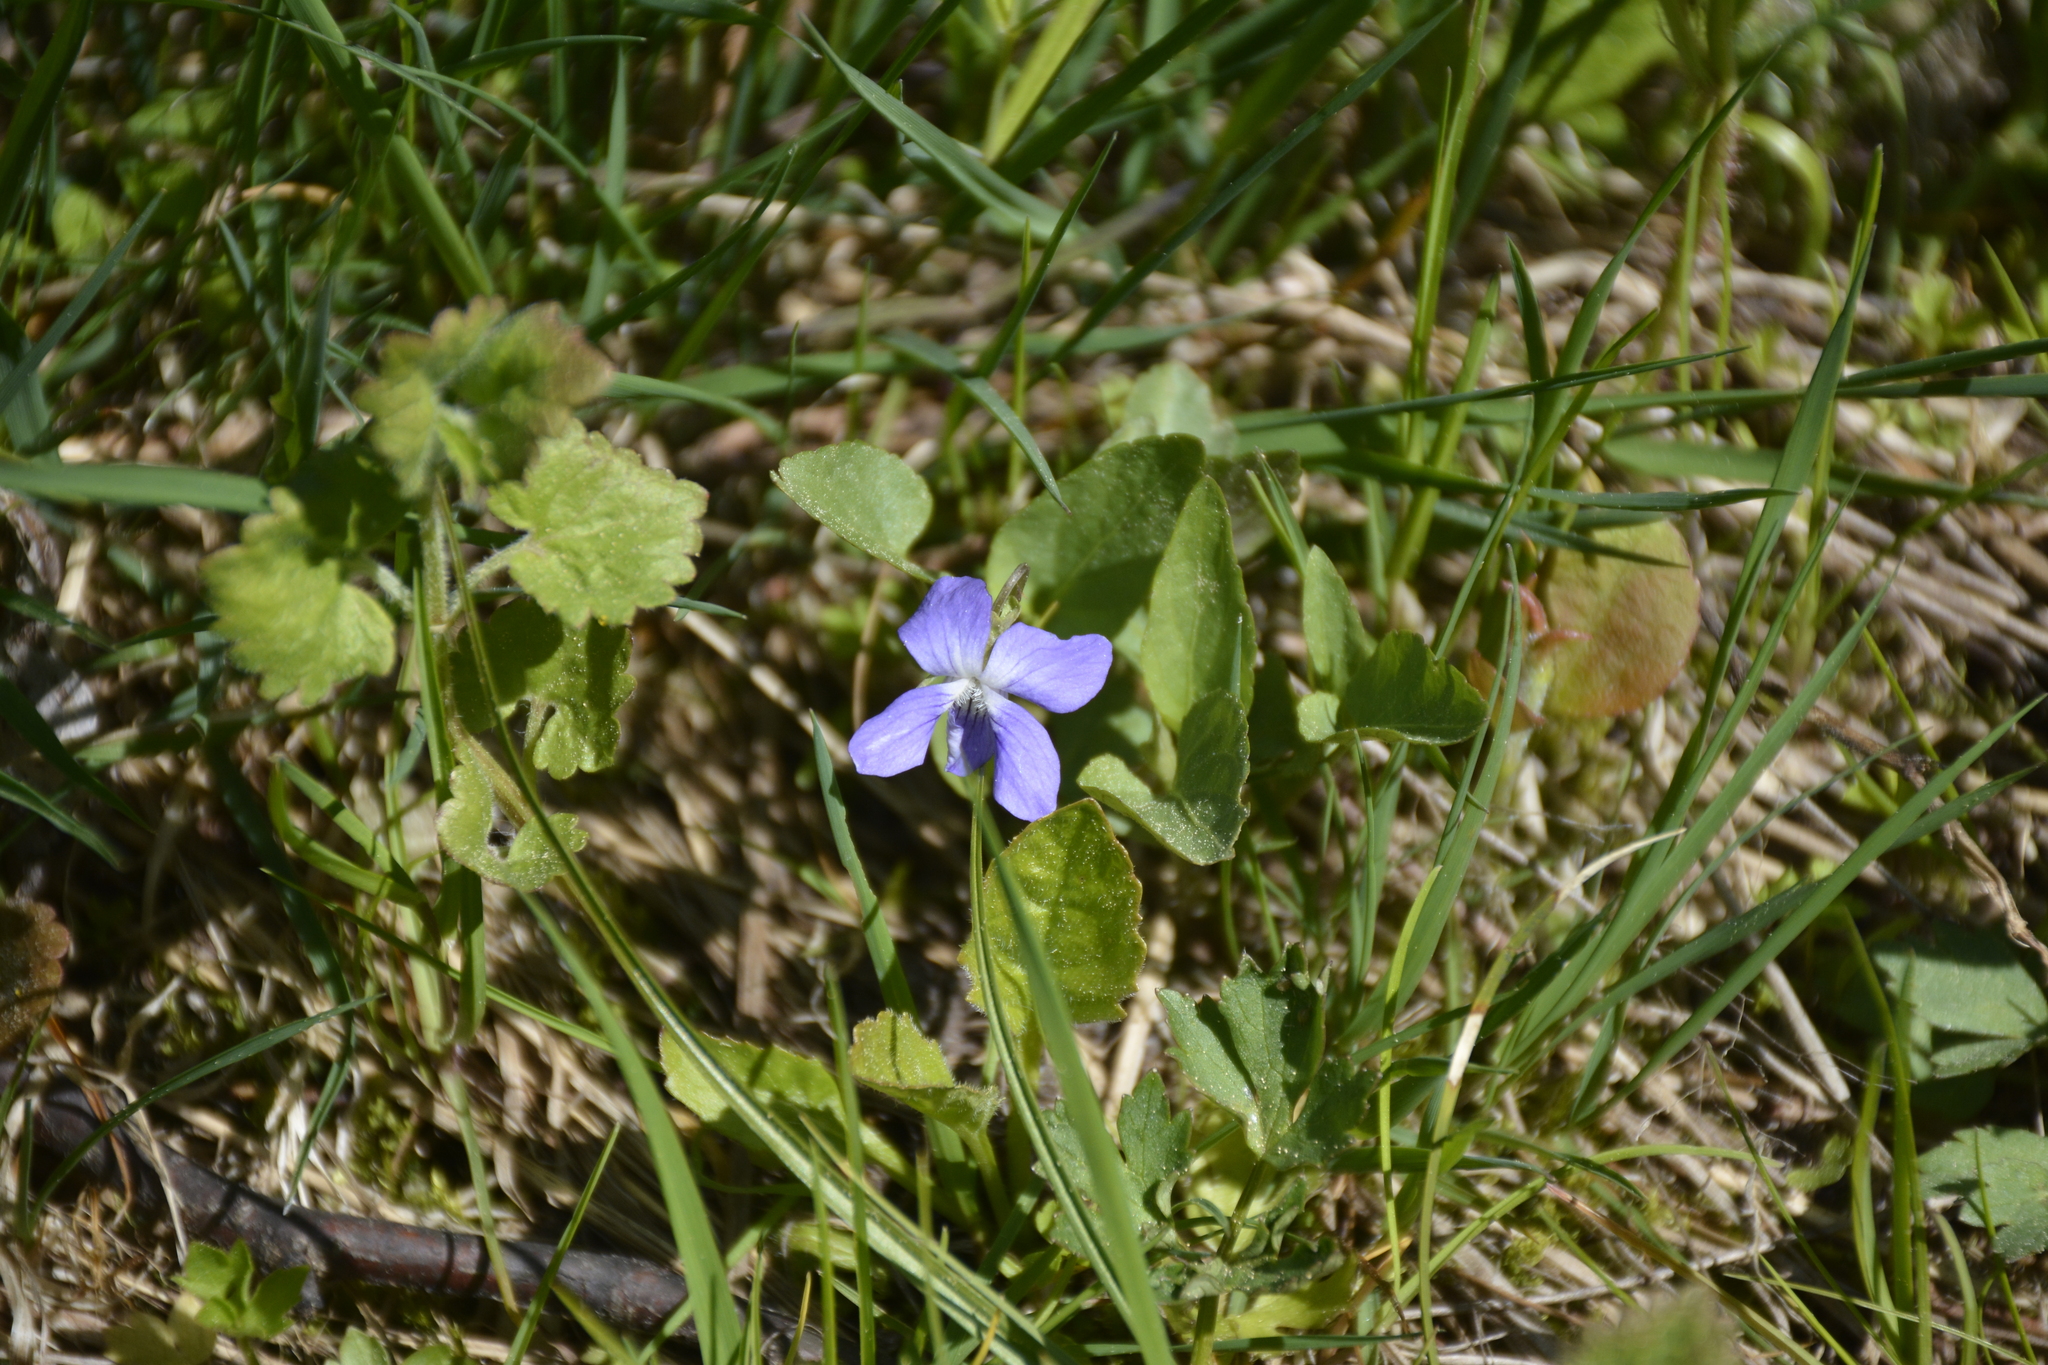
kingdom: Plantae
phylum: Tracheophyta
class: Magnoliopsida
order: Malpighiales
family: Violaceae
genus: Viola
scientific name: Viola canina
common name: Heath dog-violet
